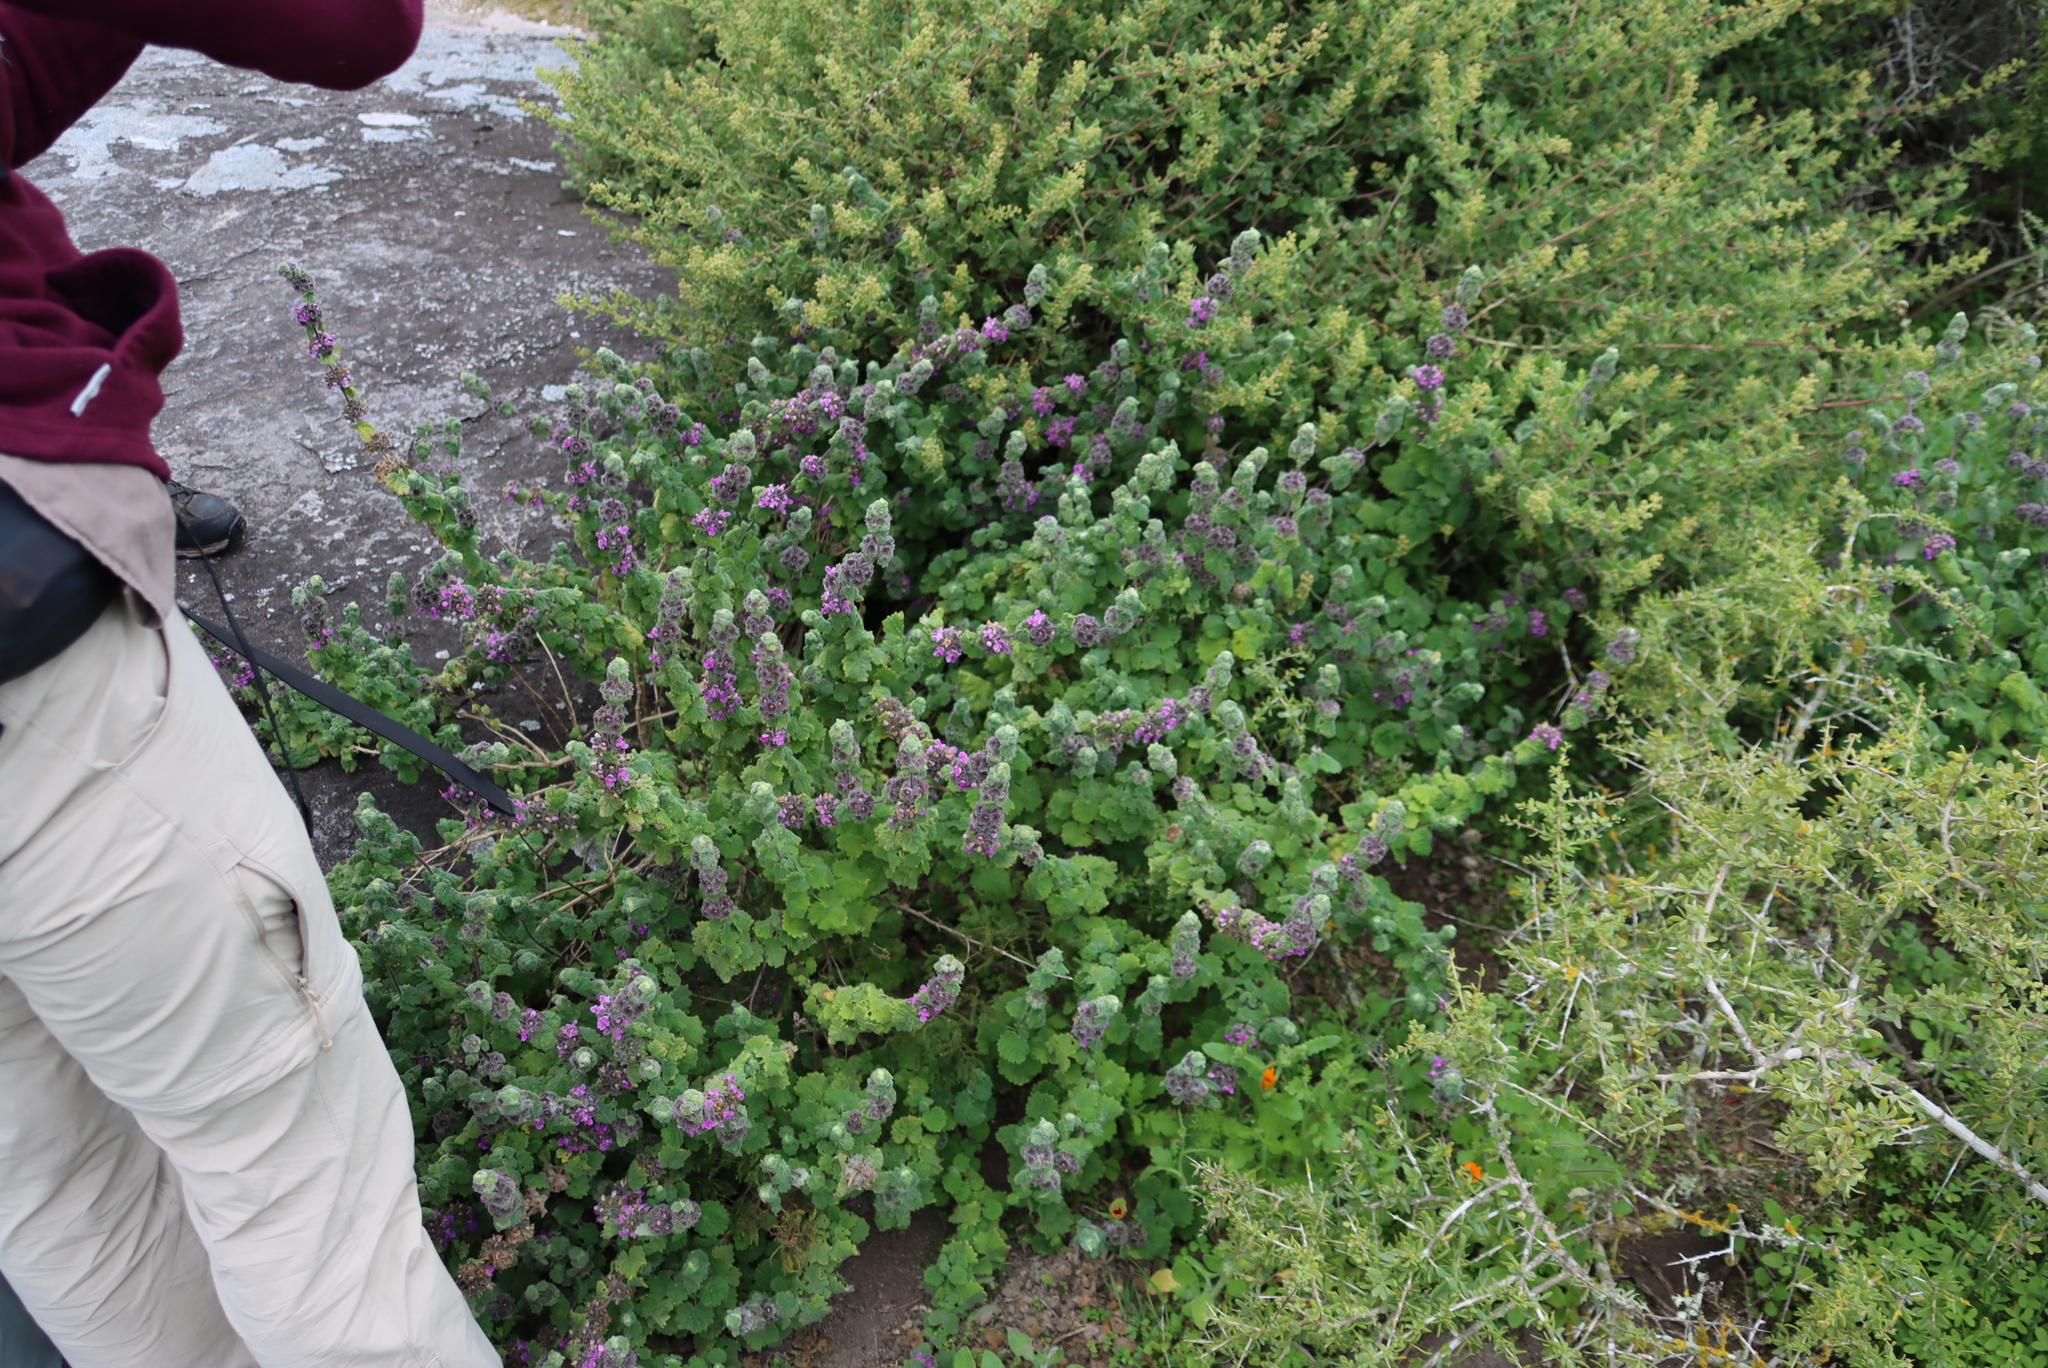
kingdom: Plantae
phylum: Tracheophyta
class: Magnoliopsida
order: Lamiales
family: Lamiaceae
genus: Pseudodictamnus
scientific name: Pseudodictamnus africanus
